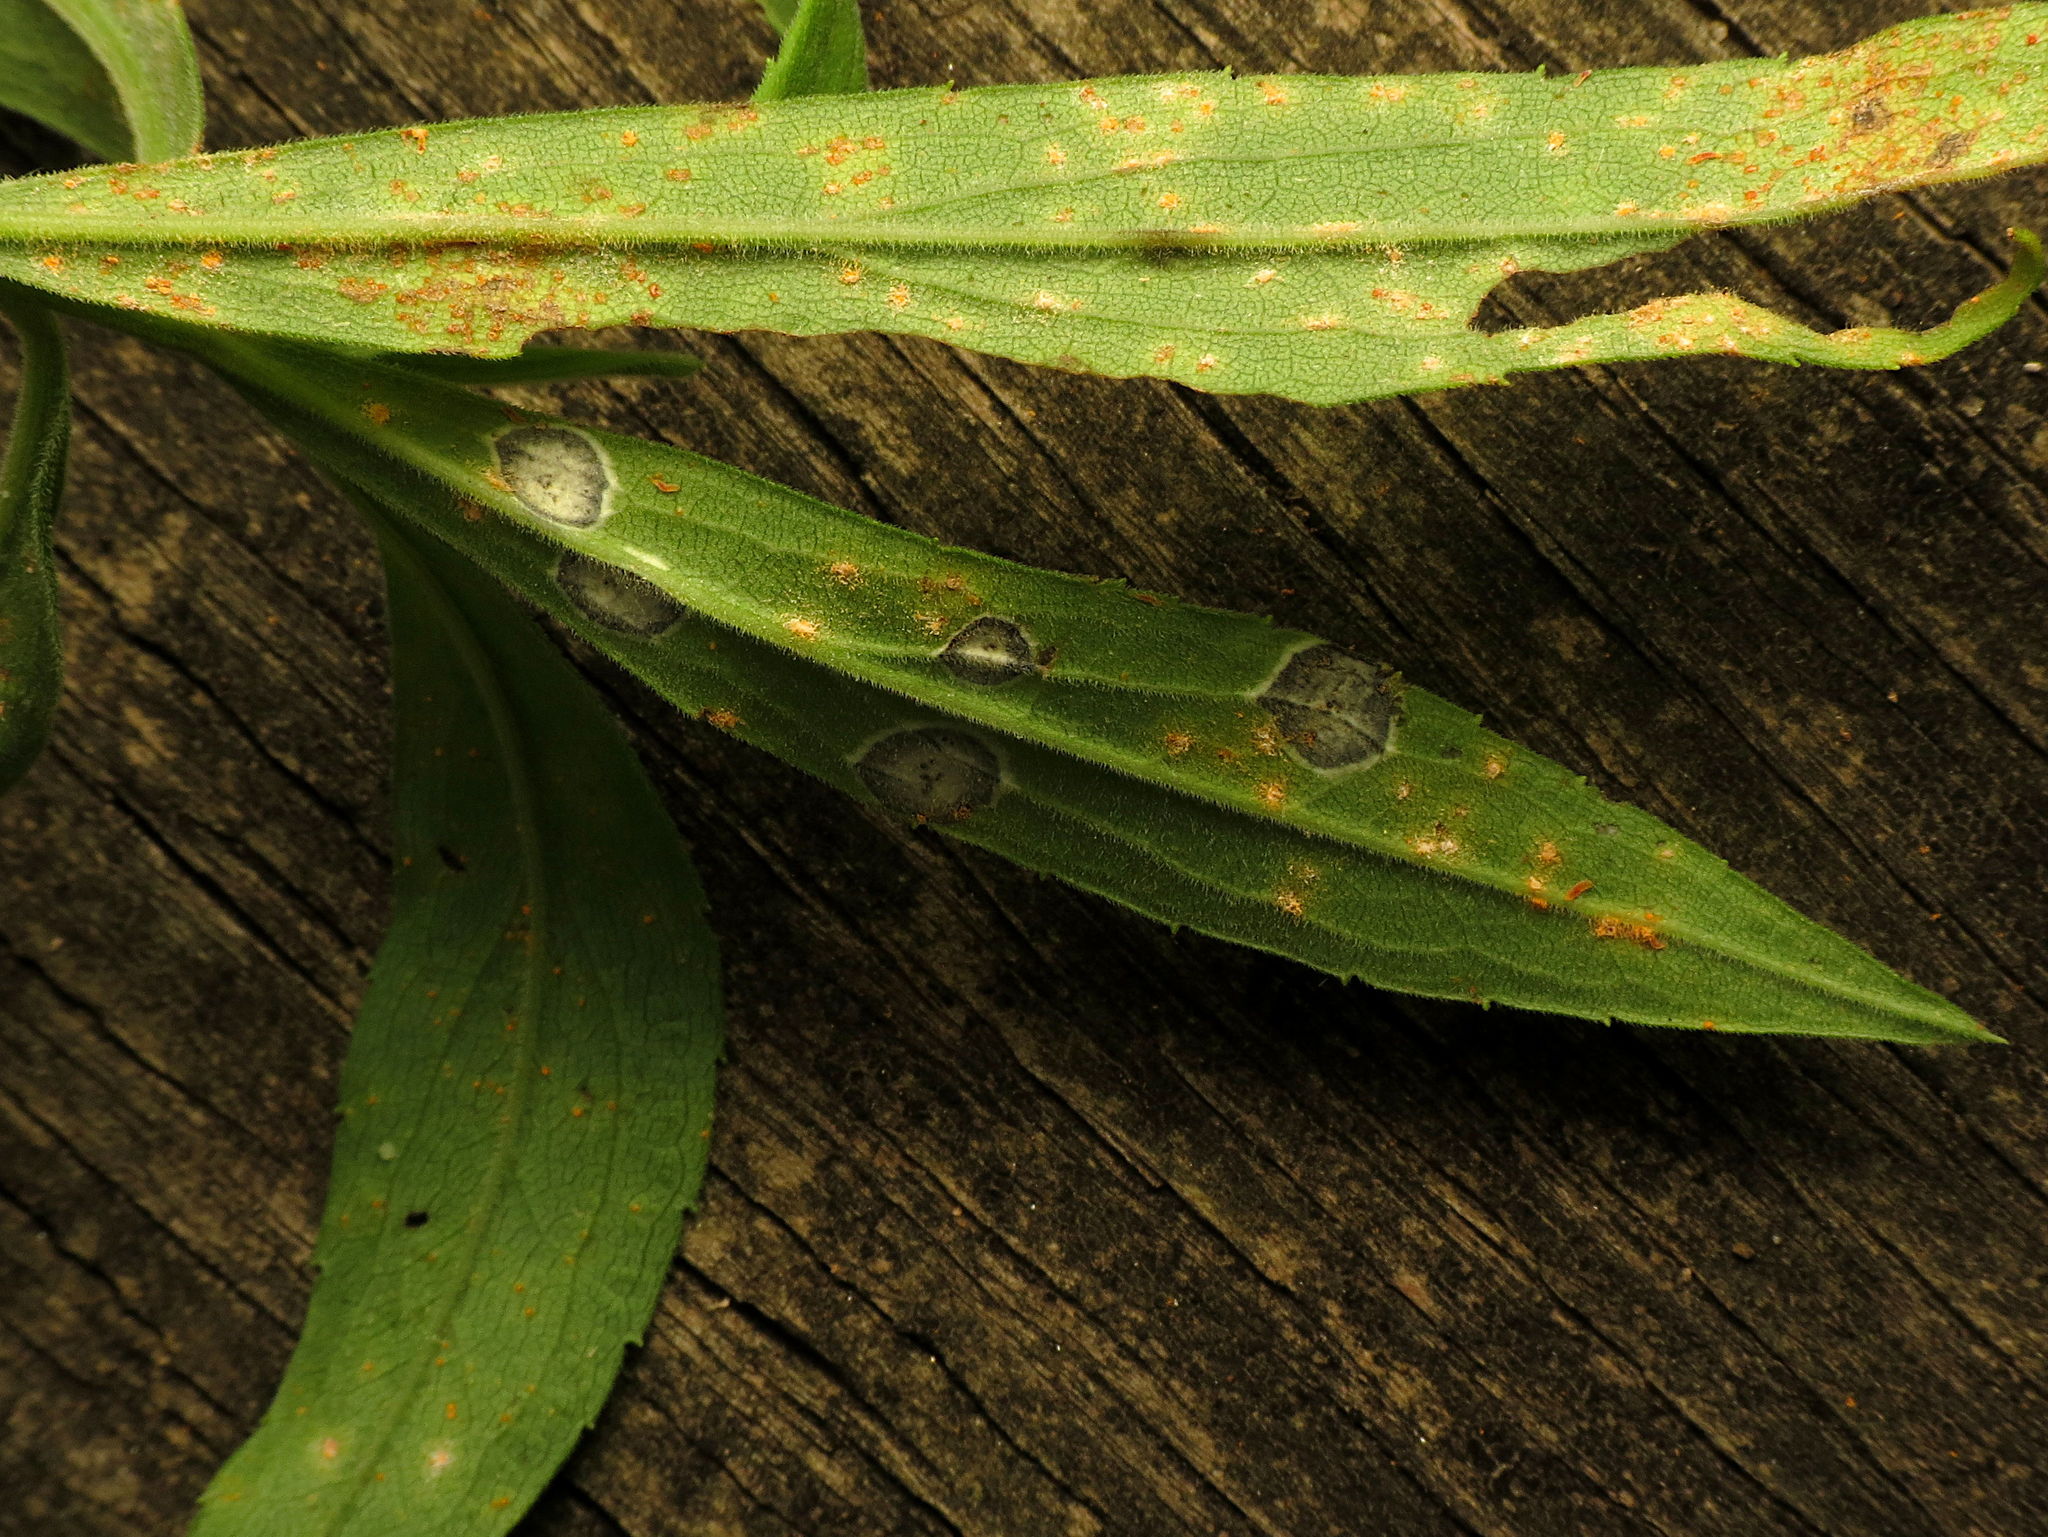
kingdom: Animalia
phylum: Arthropoda
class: Insecta
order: Diptera
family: Cecidomyiidae
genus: Asteromyia
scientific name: Asteromyia carbonifera
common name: Carbonifera goldenrod gall midge
